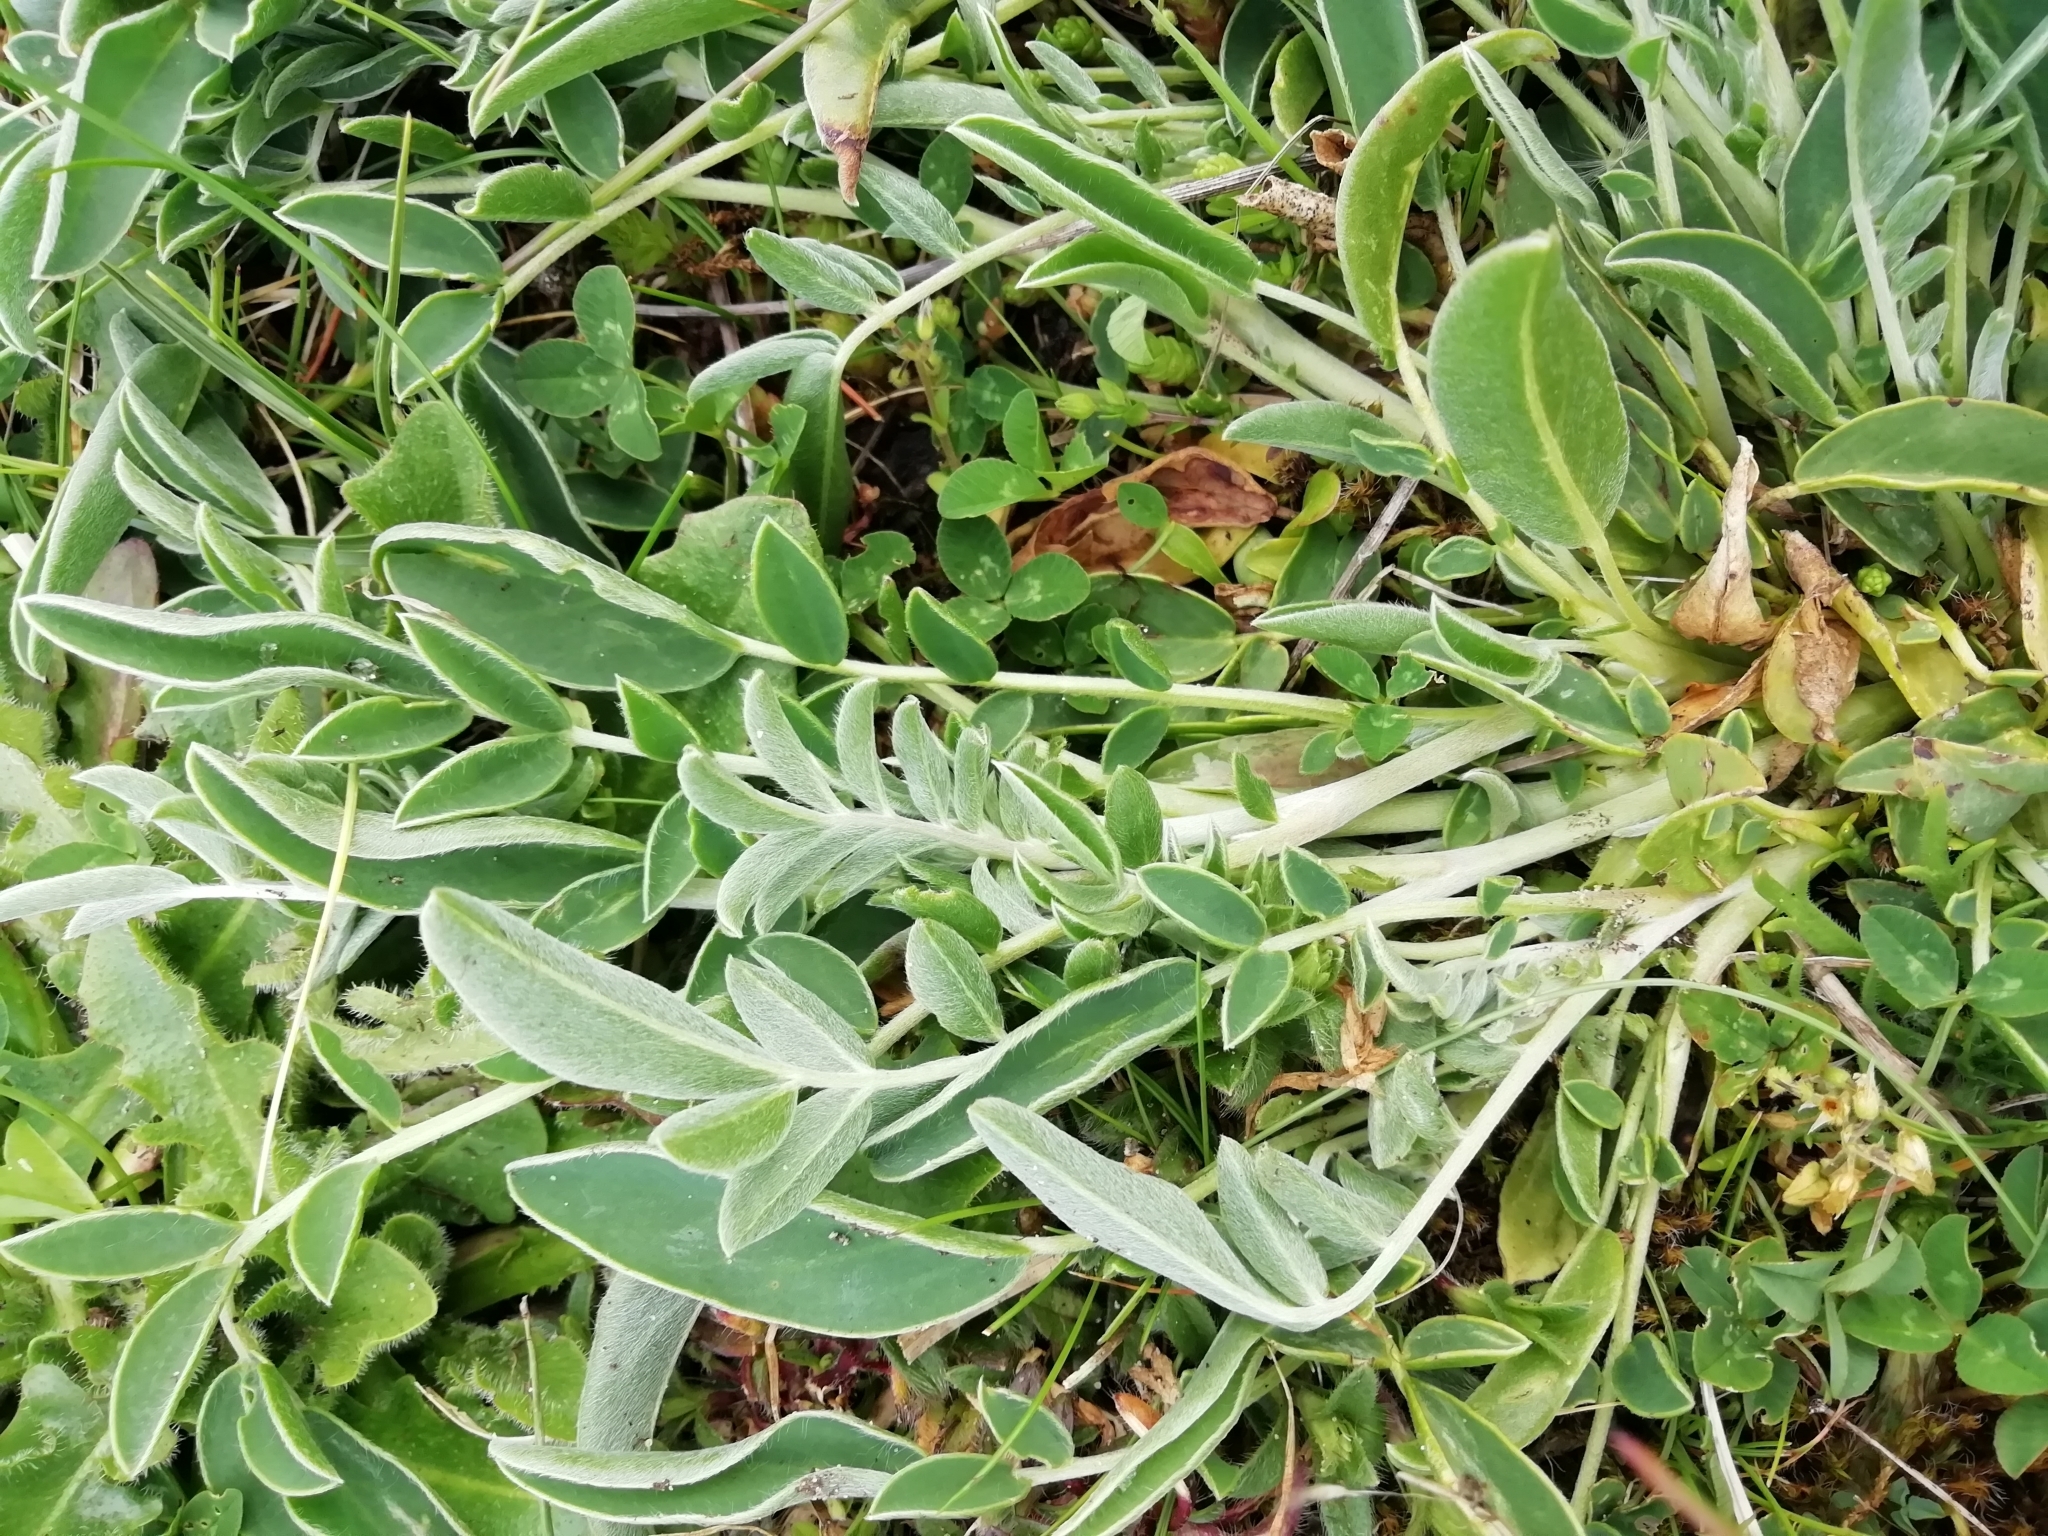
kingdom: Plantae
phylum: Tracheophyta
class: Magnoliopsida
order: Fabales
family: Fabaceae
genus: Anthyllis
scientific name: Anthyllis vulneraria
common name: Kidney vetch
